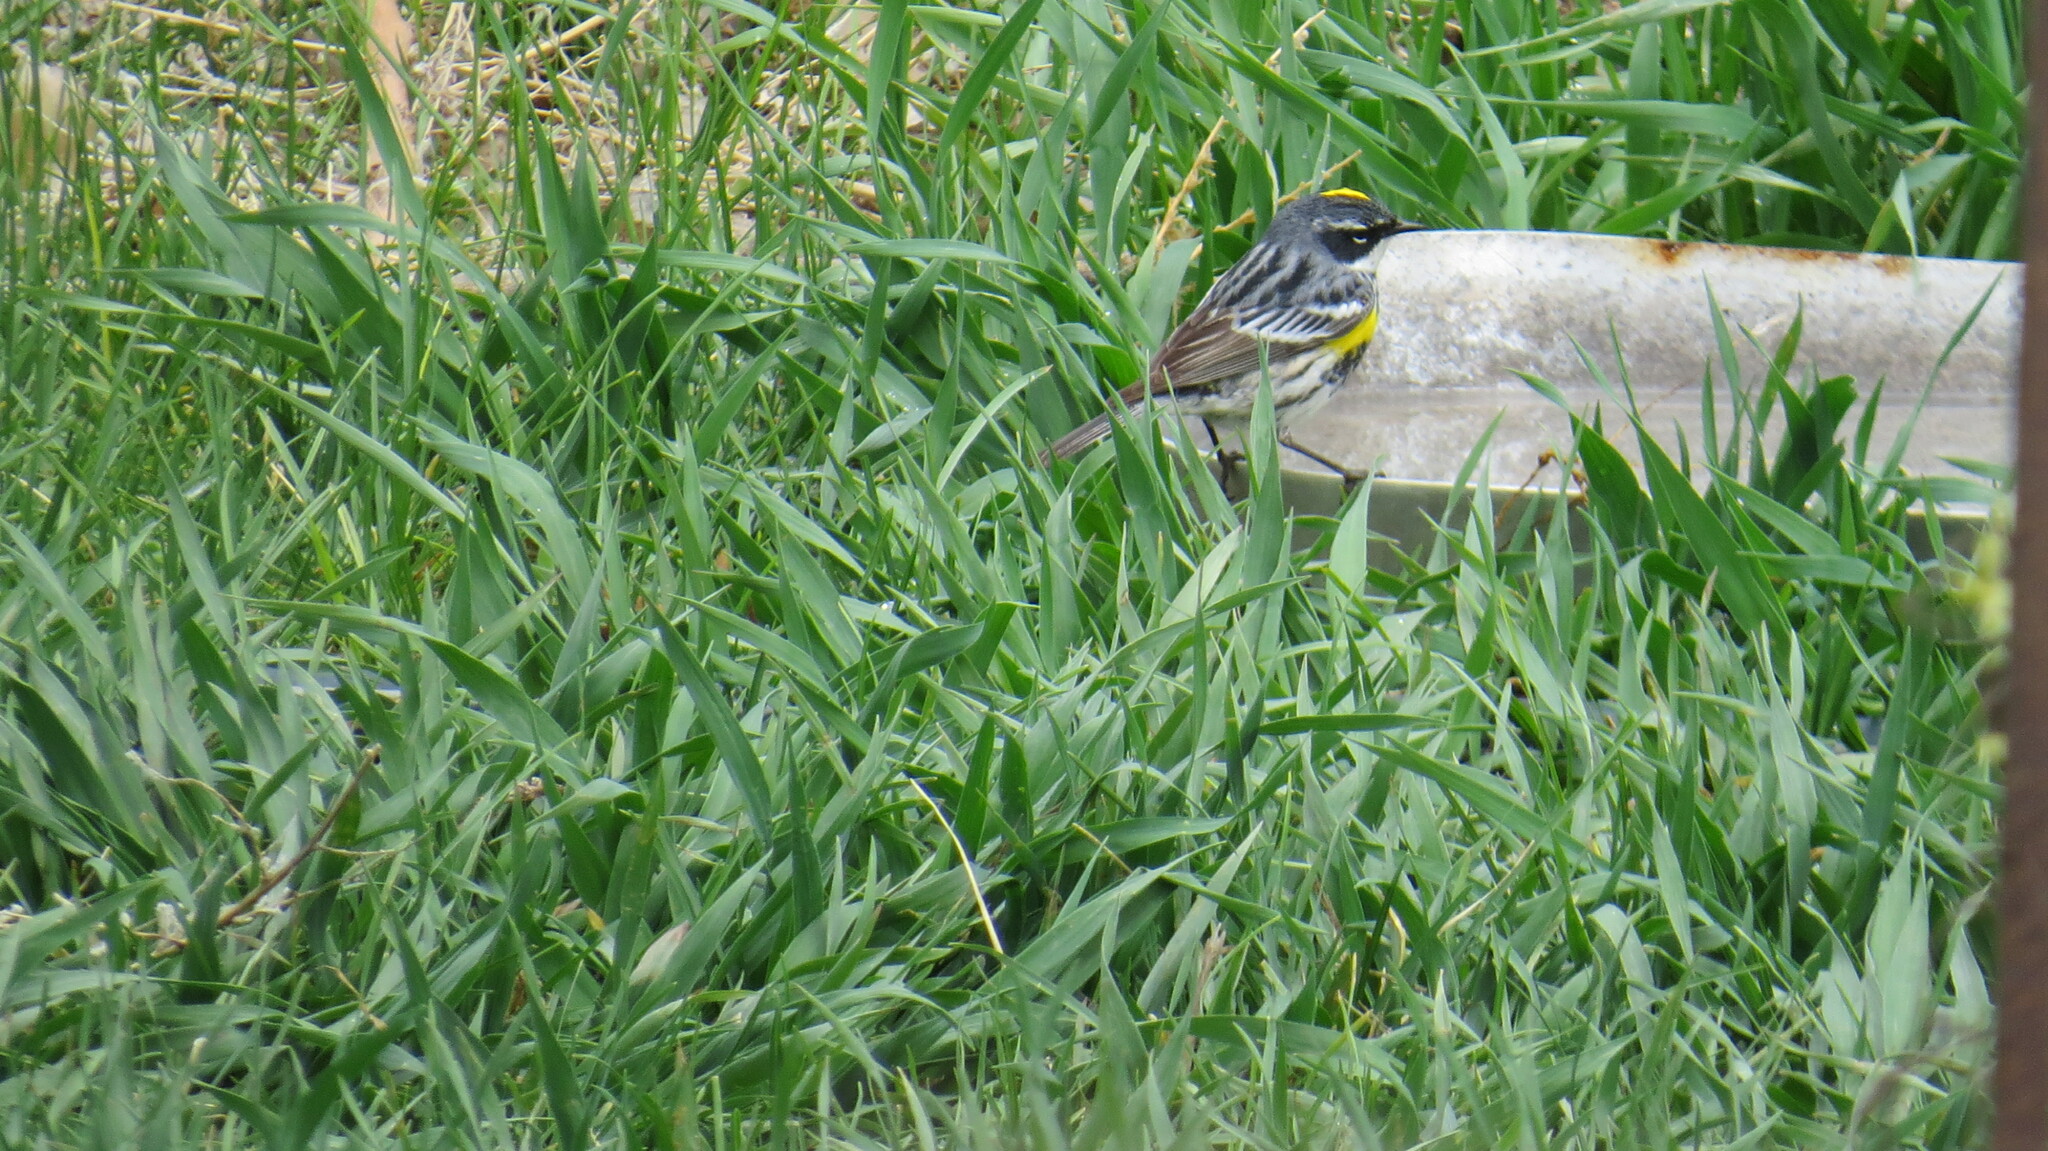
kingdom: Animalia
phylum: Chordata
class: Aves
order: Passeriformes
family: Parulidae
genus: Setophaga
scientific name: Setophaga coronata
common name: Myrtle warbler
